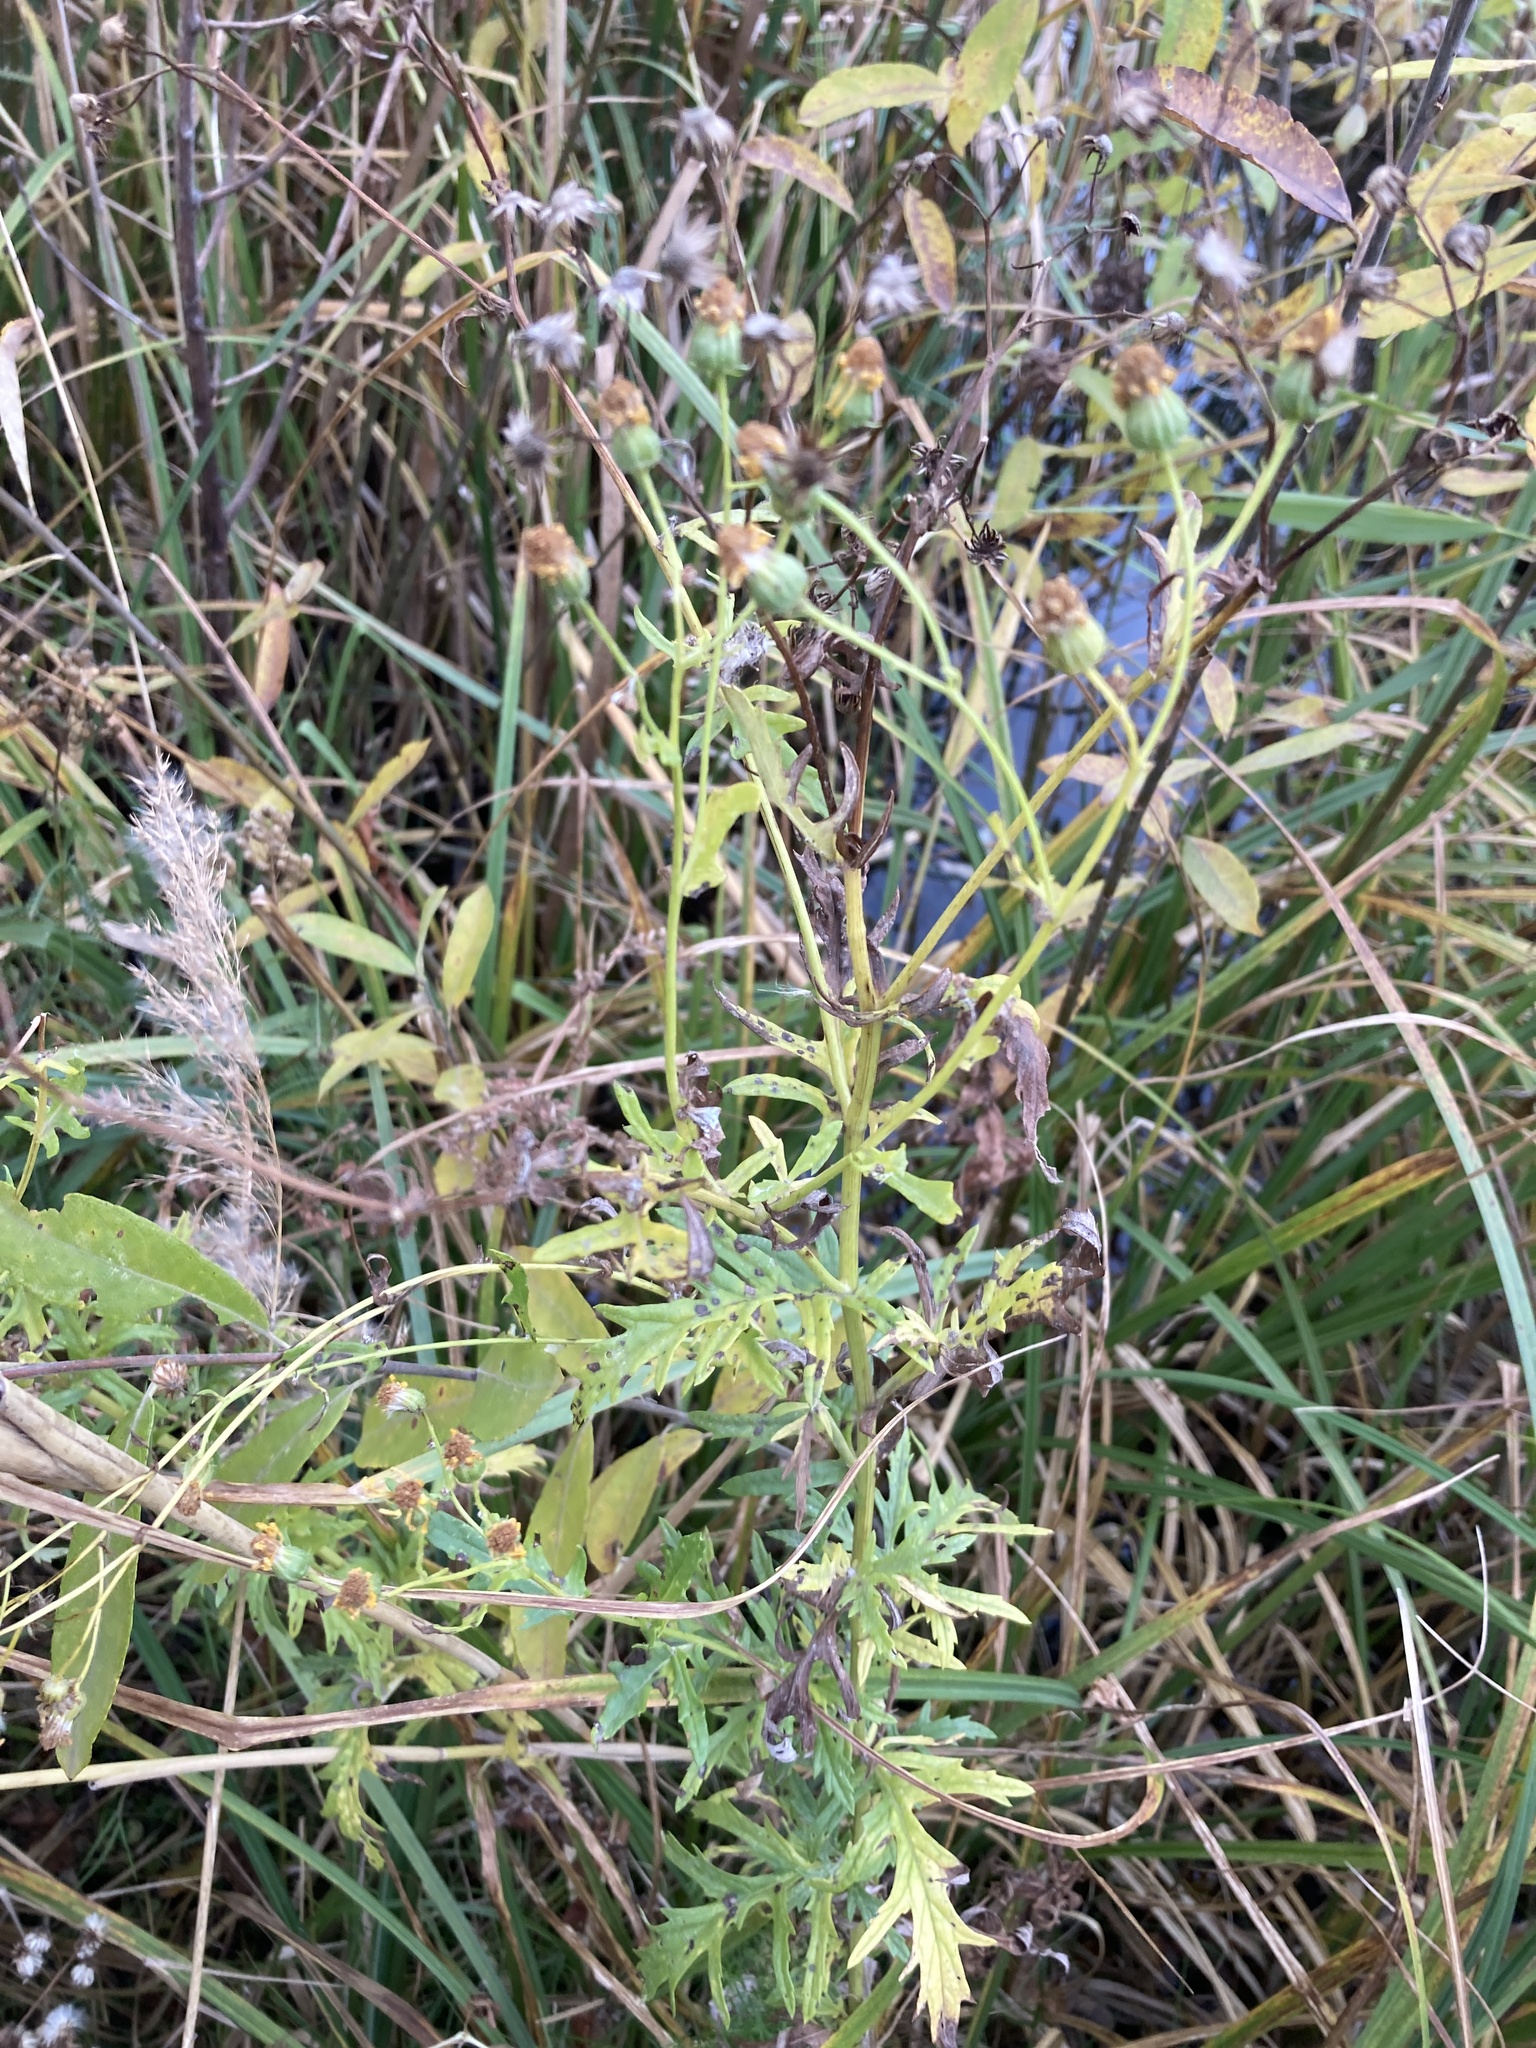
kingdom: Plantae
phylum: Tracheophyta
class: Magnoliopsida
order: Asterales
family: Asteraceae
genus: Jacobaea
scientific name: Jacobaea erucifolia
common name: Hoary ragwort
